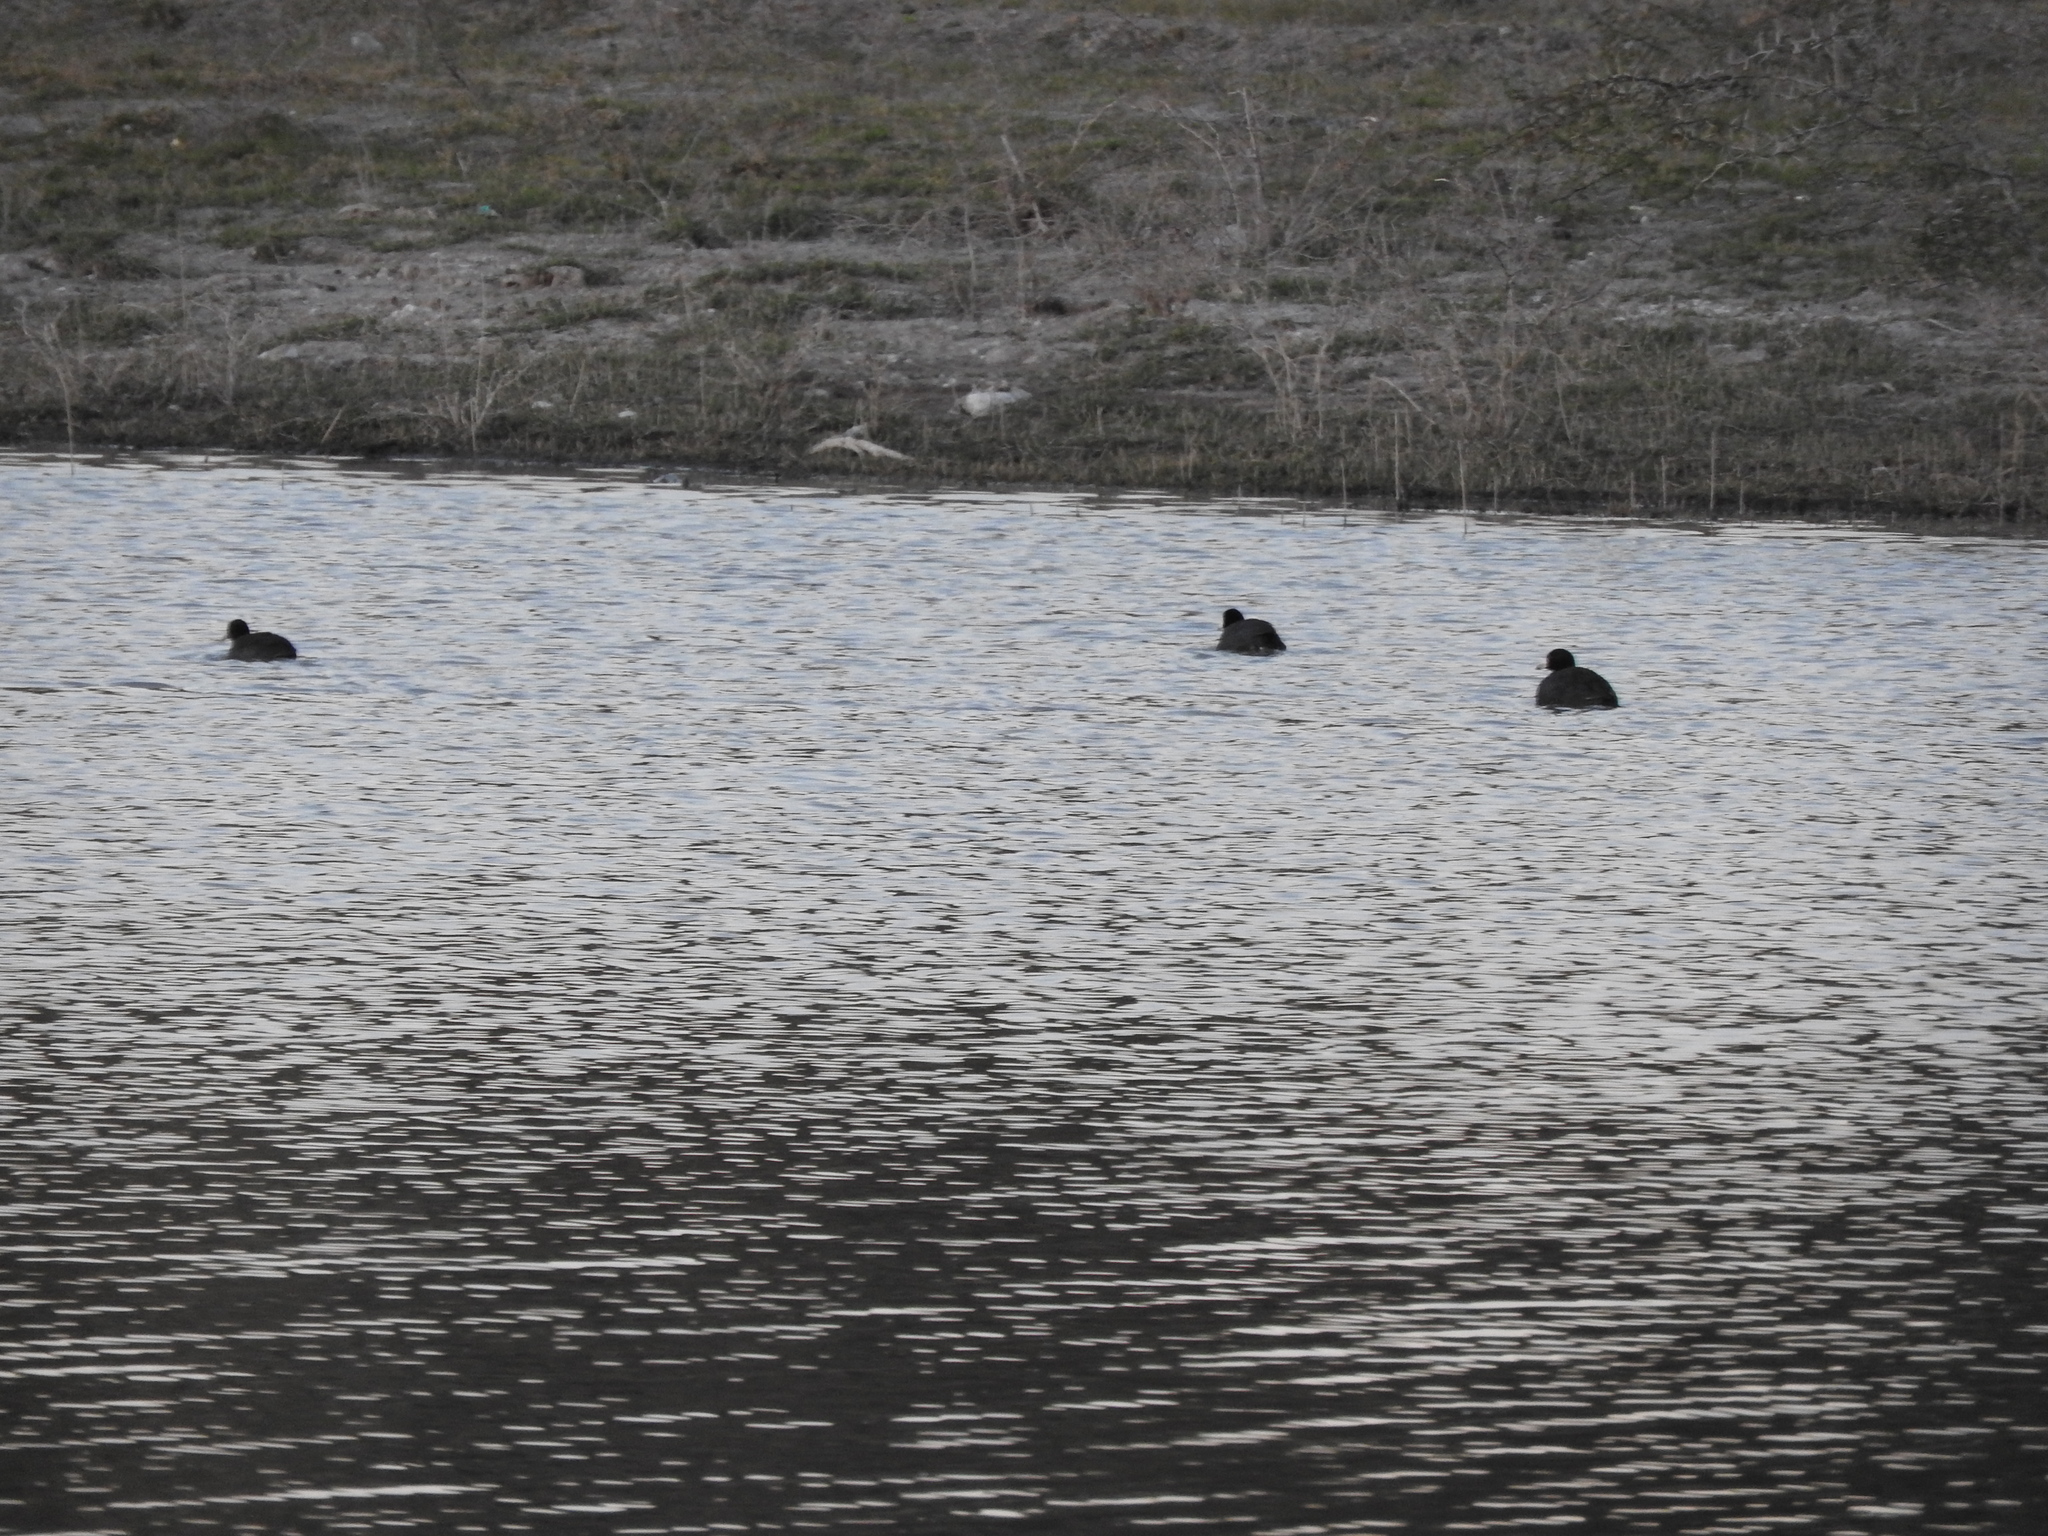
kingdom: Animalia
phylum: Chordata
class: Aves
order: Gruiformes
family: Rallidae
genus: Fulica
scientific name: Fulica americana
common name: American coot
